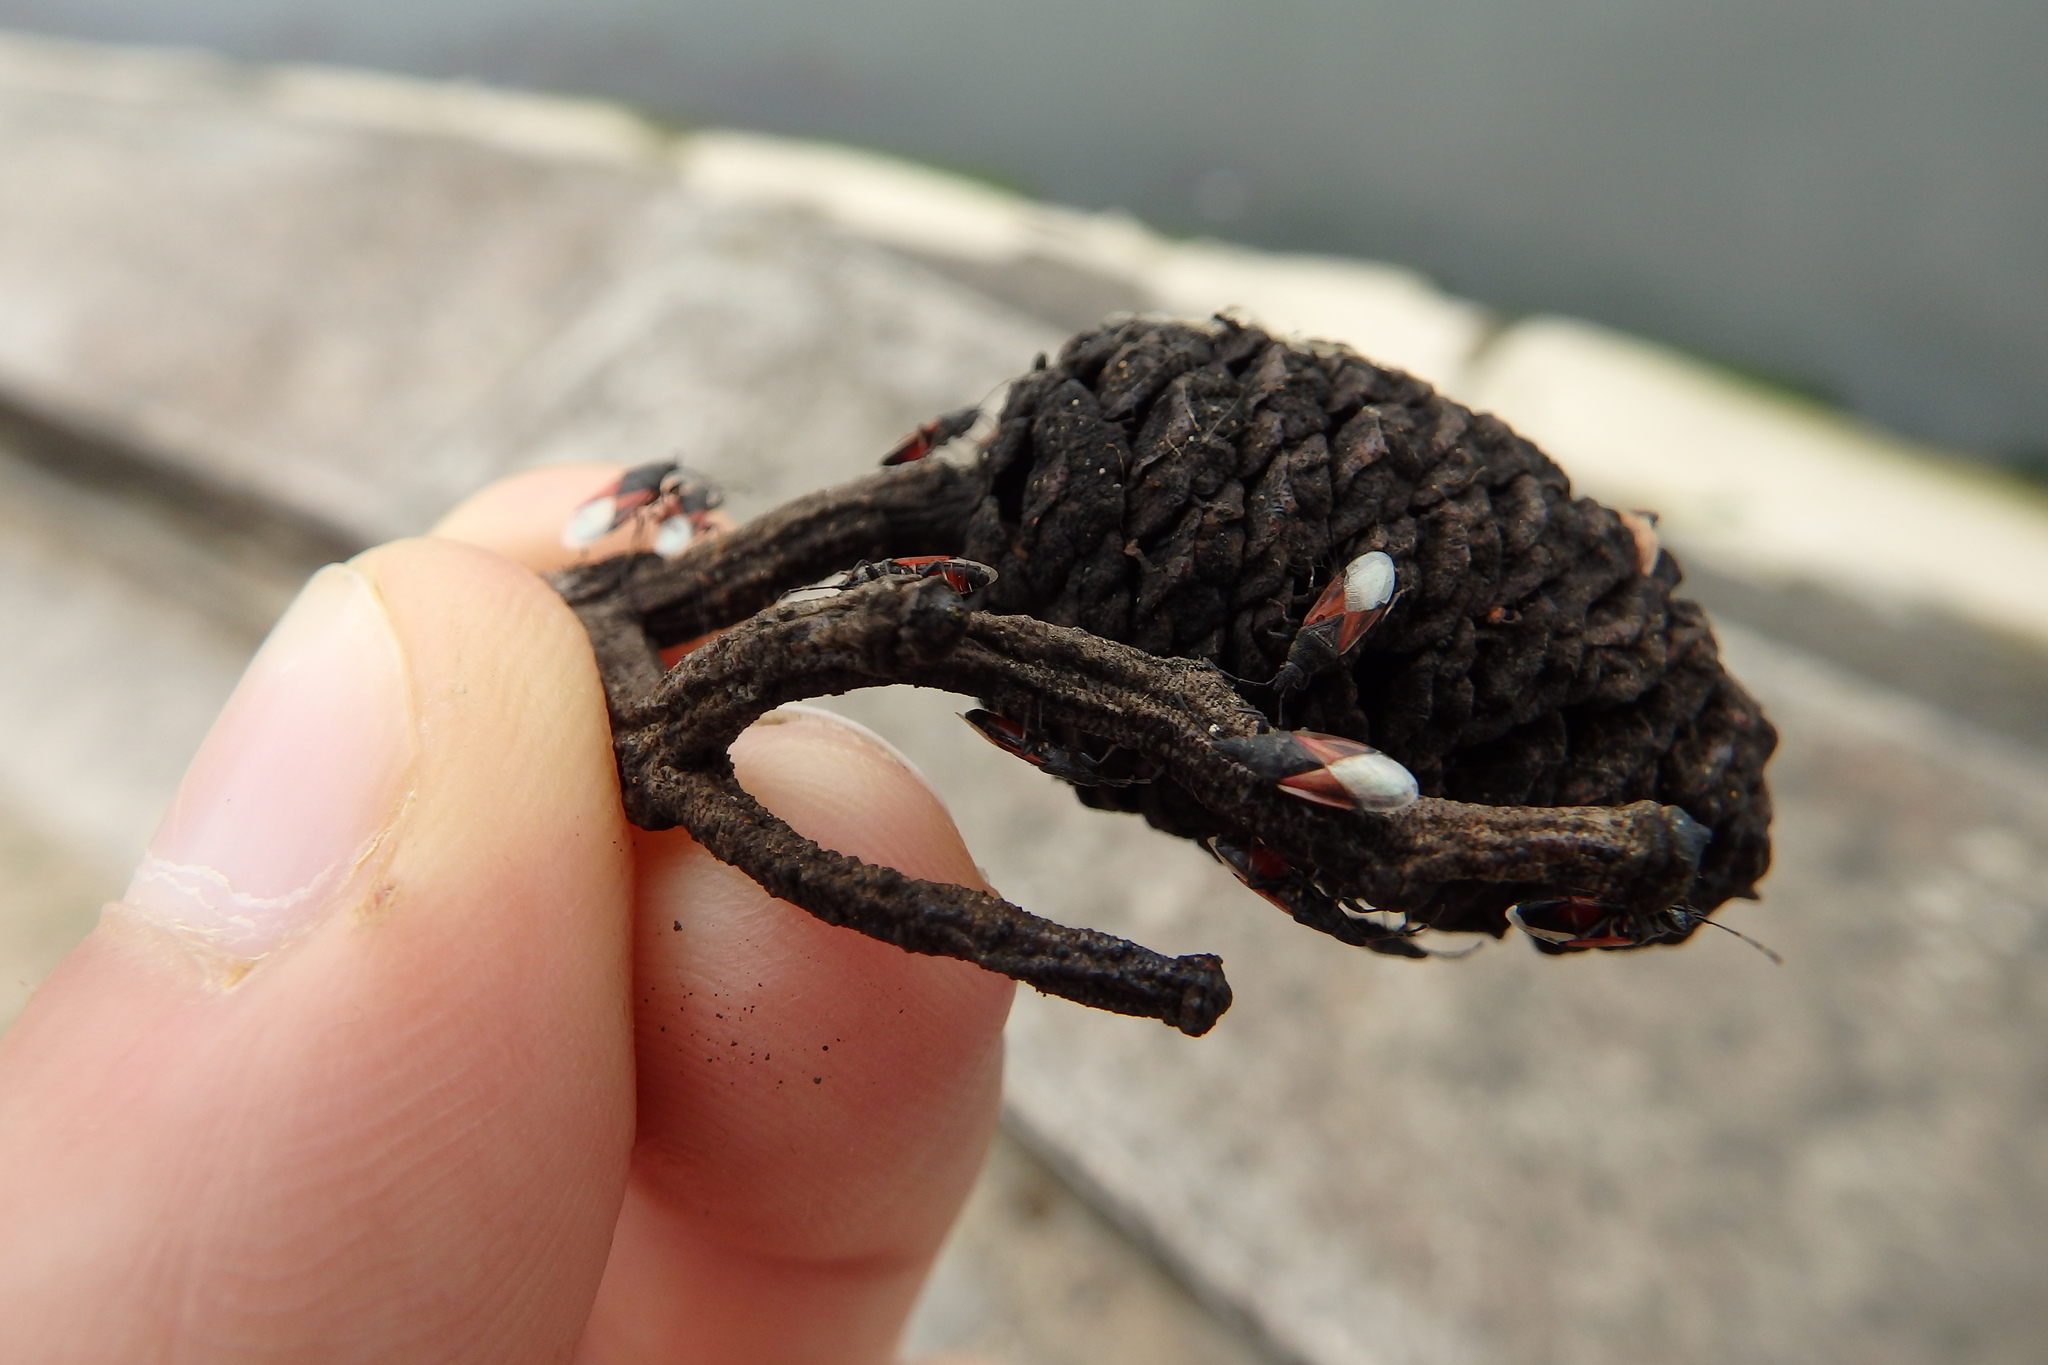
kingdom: Animalia
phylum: Arthropoda
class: Insecta
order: Hemiptera
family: Oxycarenidae
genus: Oxycarenus
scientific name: Oxycarenus lavaterae
